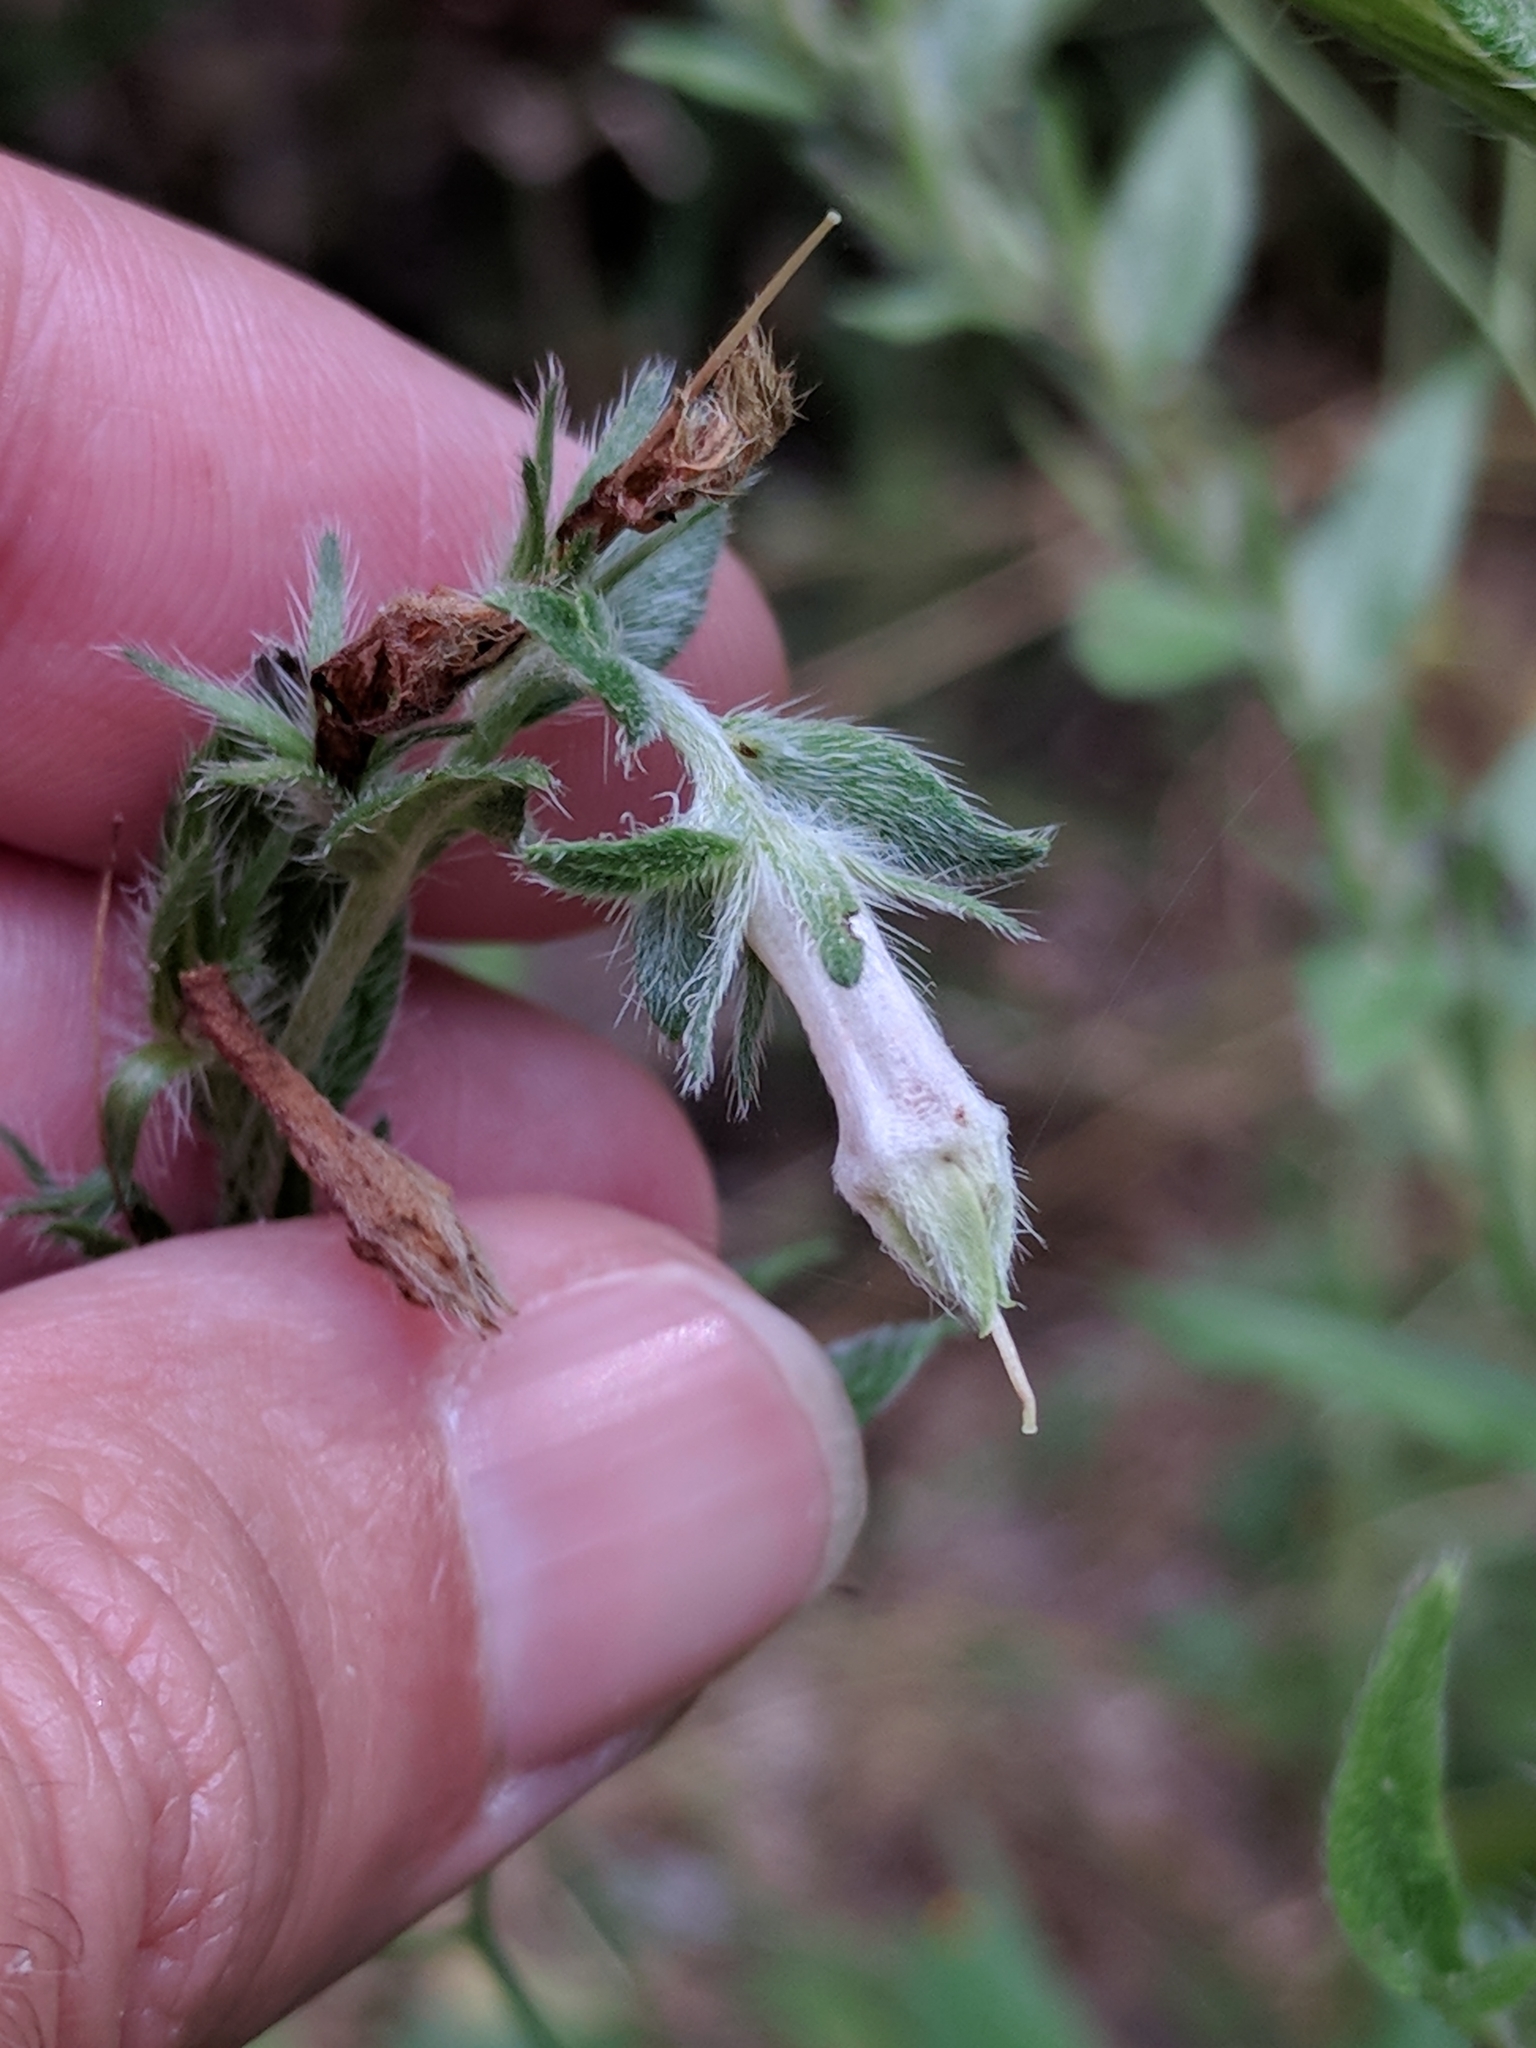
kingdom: Plantae
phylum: Tracheophyta
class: Magnoliopsida
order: Boraginales
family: Boraginaceae
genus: Lithospermum
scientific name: Lithospermum caroliniense
